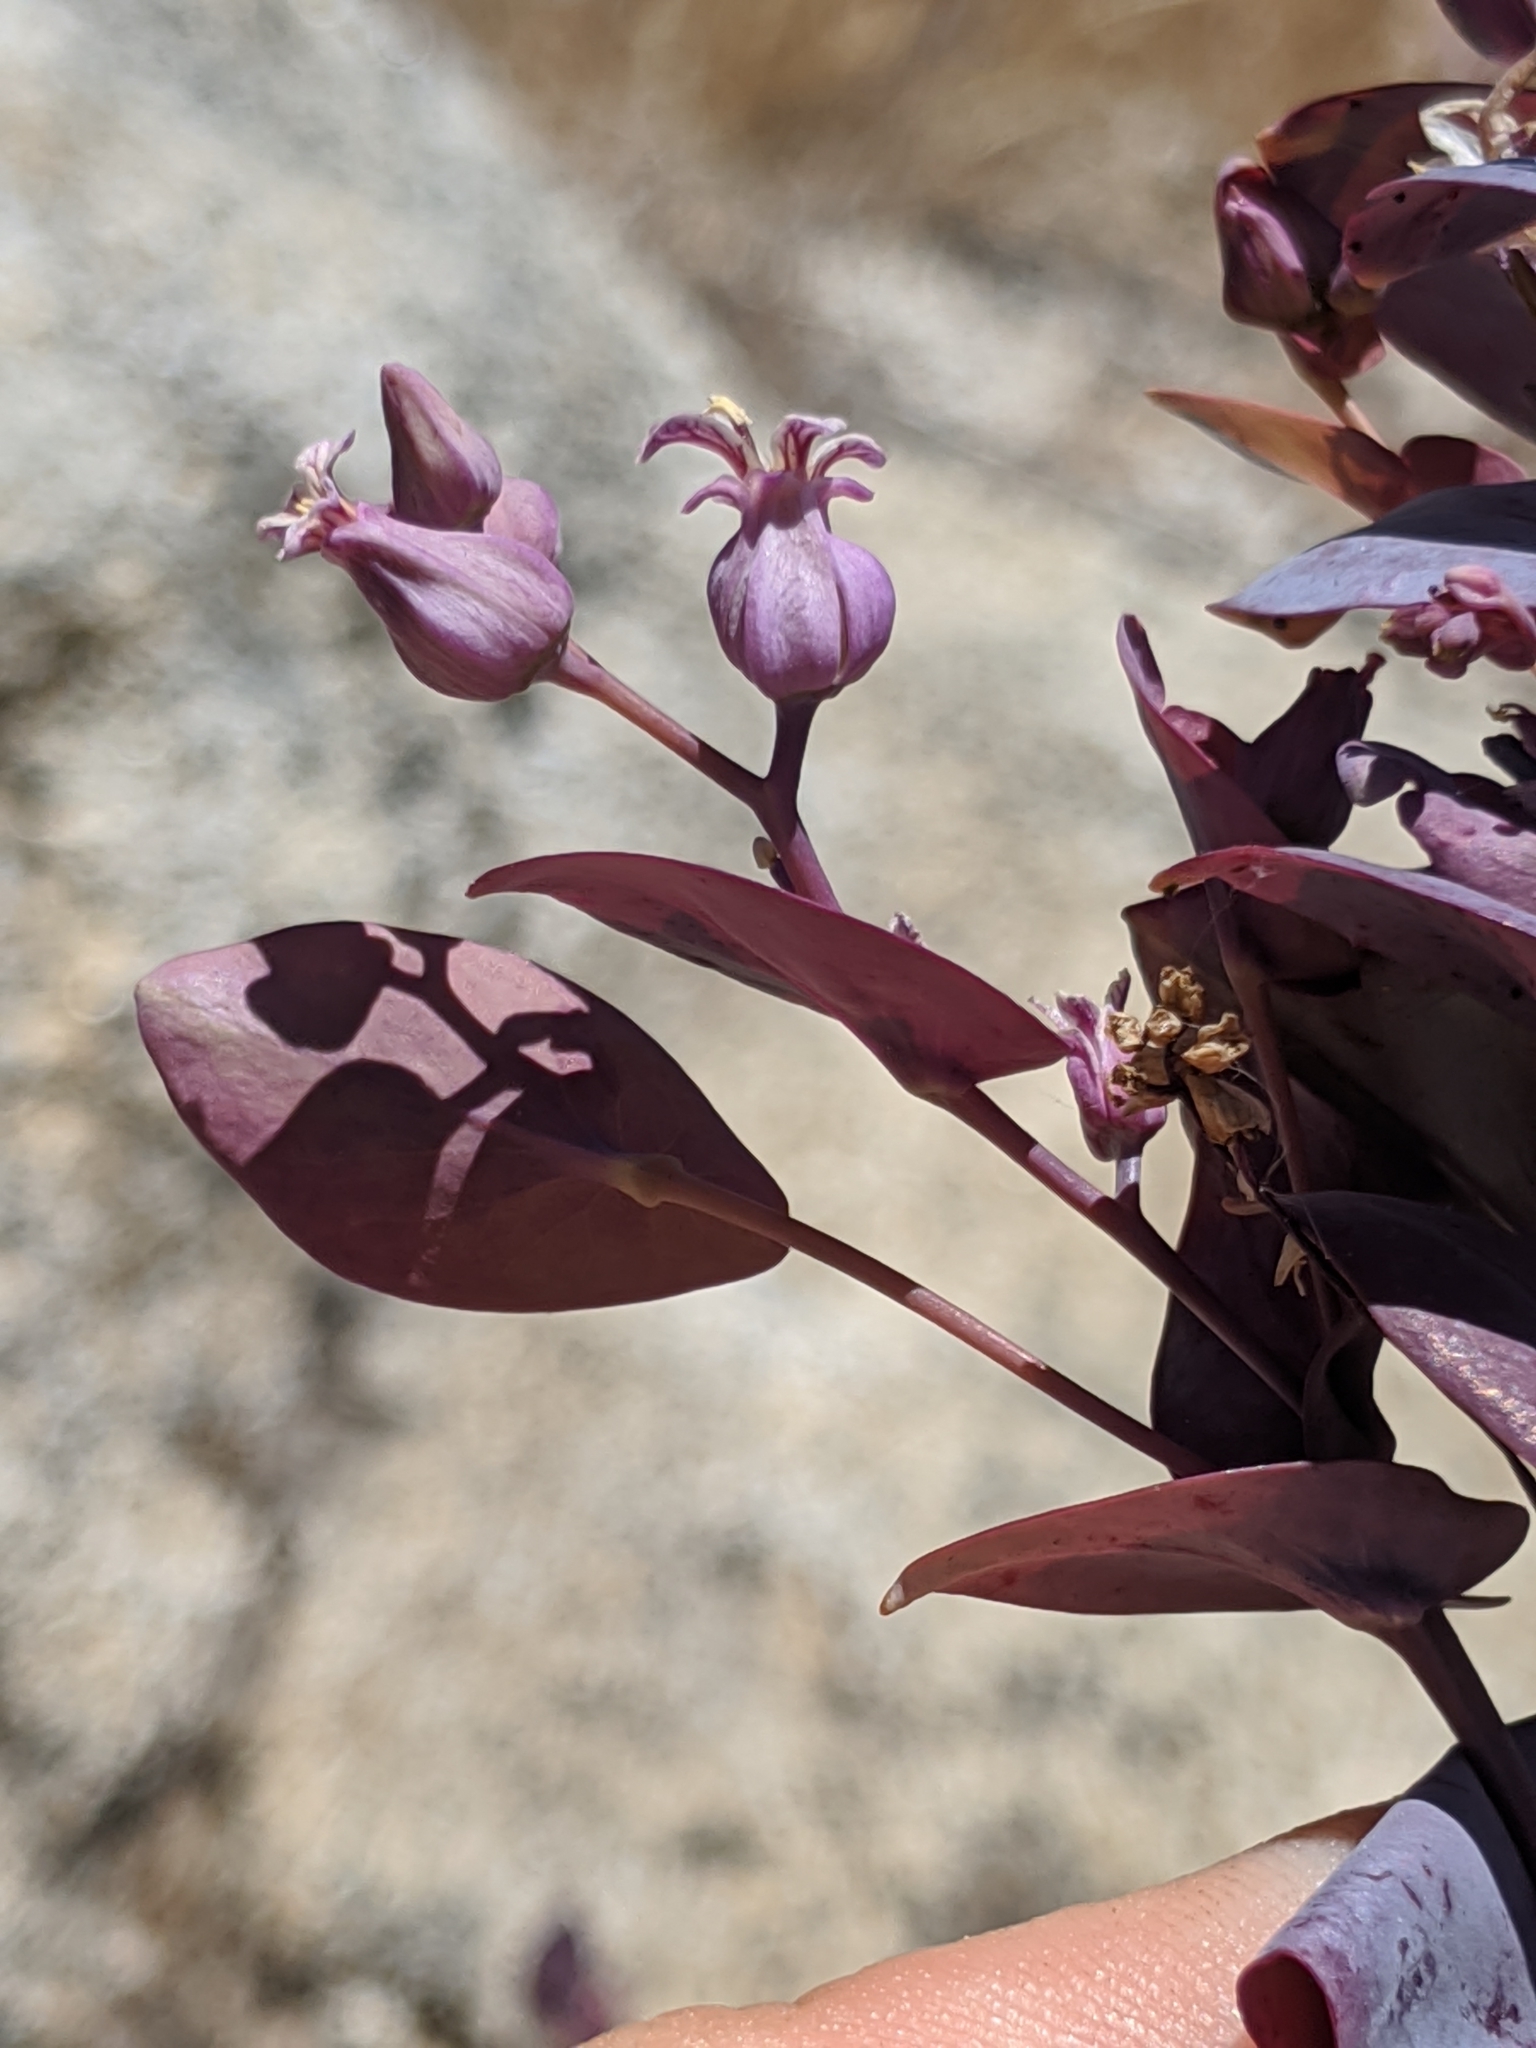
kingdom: Plantae
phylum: Tracheophyta
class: Magnoliopsida
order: Brassicales
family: Brassicaceae
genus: Streptanthus
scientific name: Streptanthus farnsworthianus
